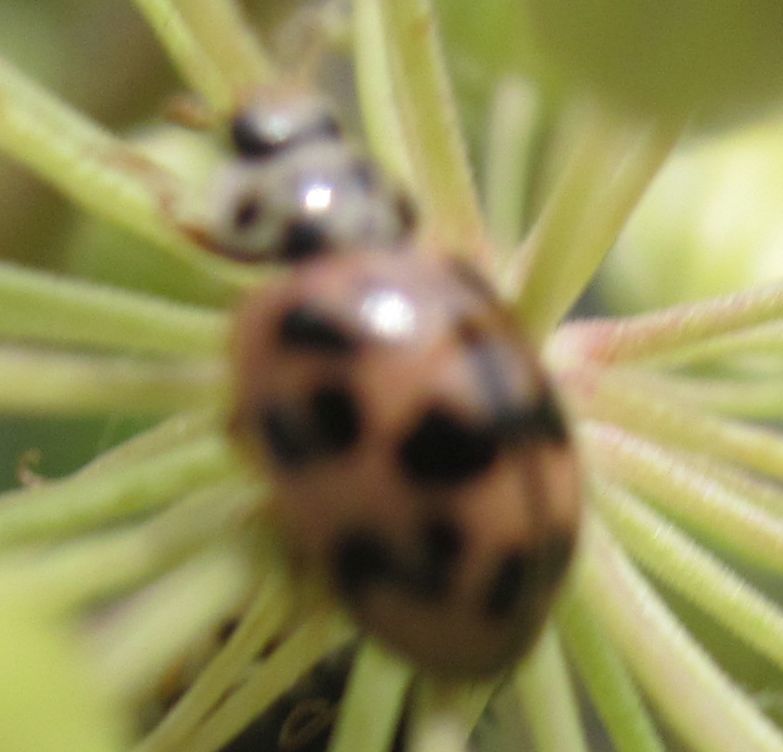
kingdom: Animalia
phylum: Arthropoda
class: Insecta
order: Coleoptera
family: Coccinellidae
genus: Oenopia
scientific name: Oenopia conglobata
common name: Ladybird beetle
